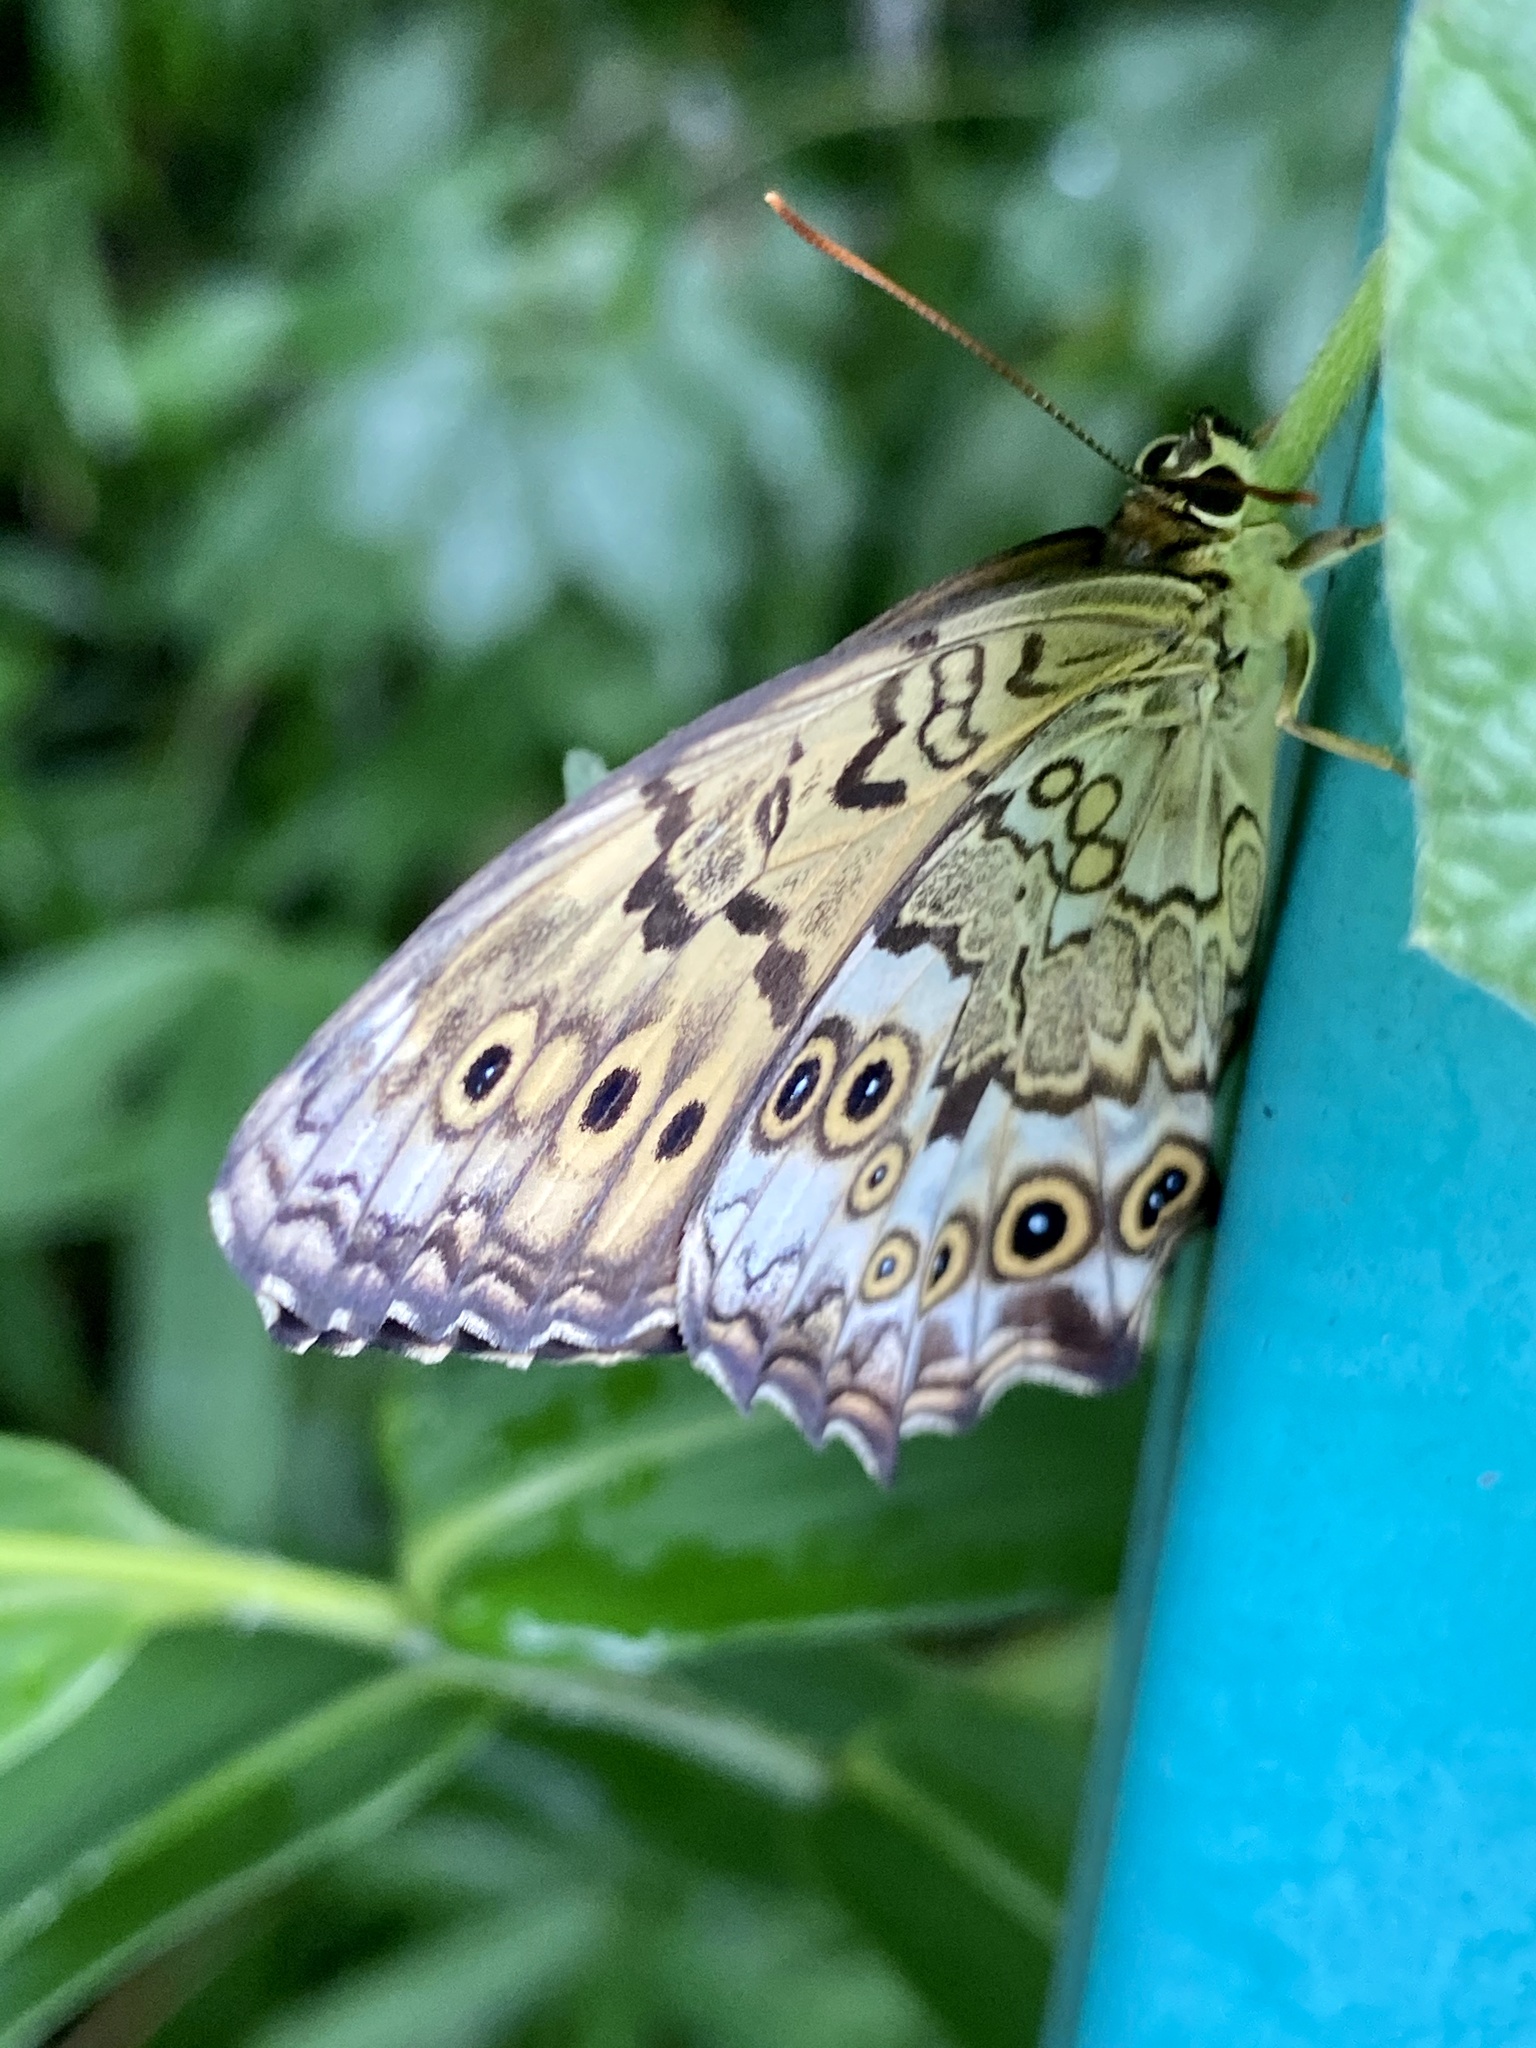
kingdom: Animalia
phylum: Arthropoda
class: Insecta
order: Lepidoptera
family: Nymphalidae
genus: Neope
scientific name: Neope goschkevitschii
